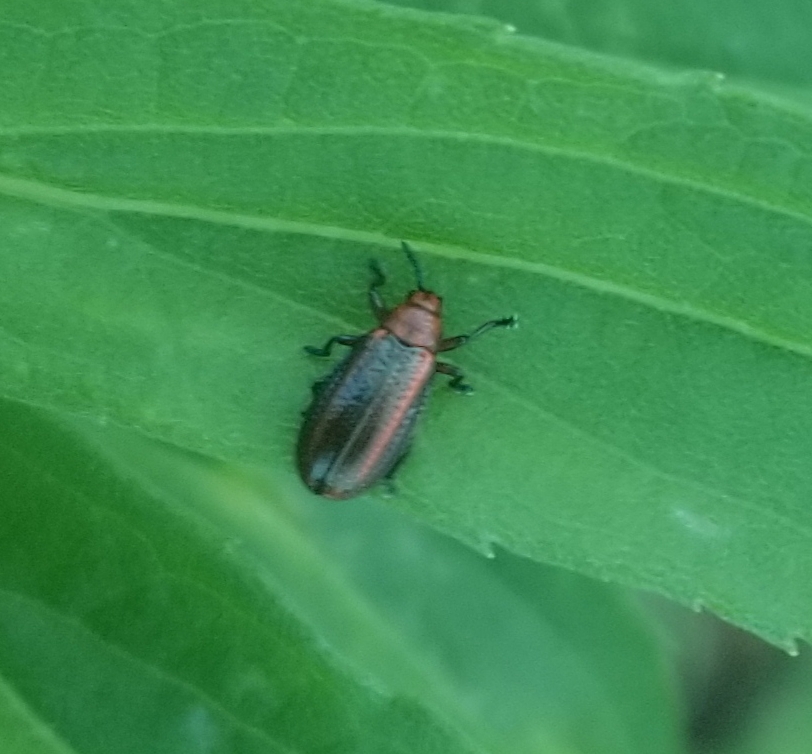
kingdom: Animalia
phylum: Arthropoda
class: Insecta
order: Coleoptera
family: Chrysomelidae
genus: Microrhopala
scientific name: Microrhopala vittata
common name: Goldenrod leaf miner beetle
